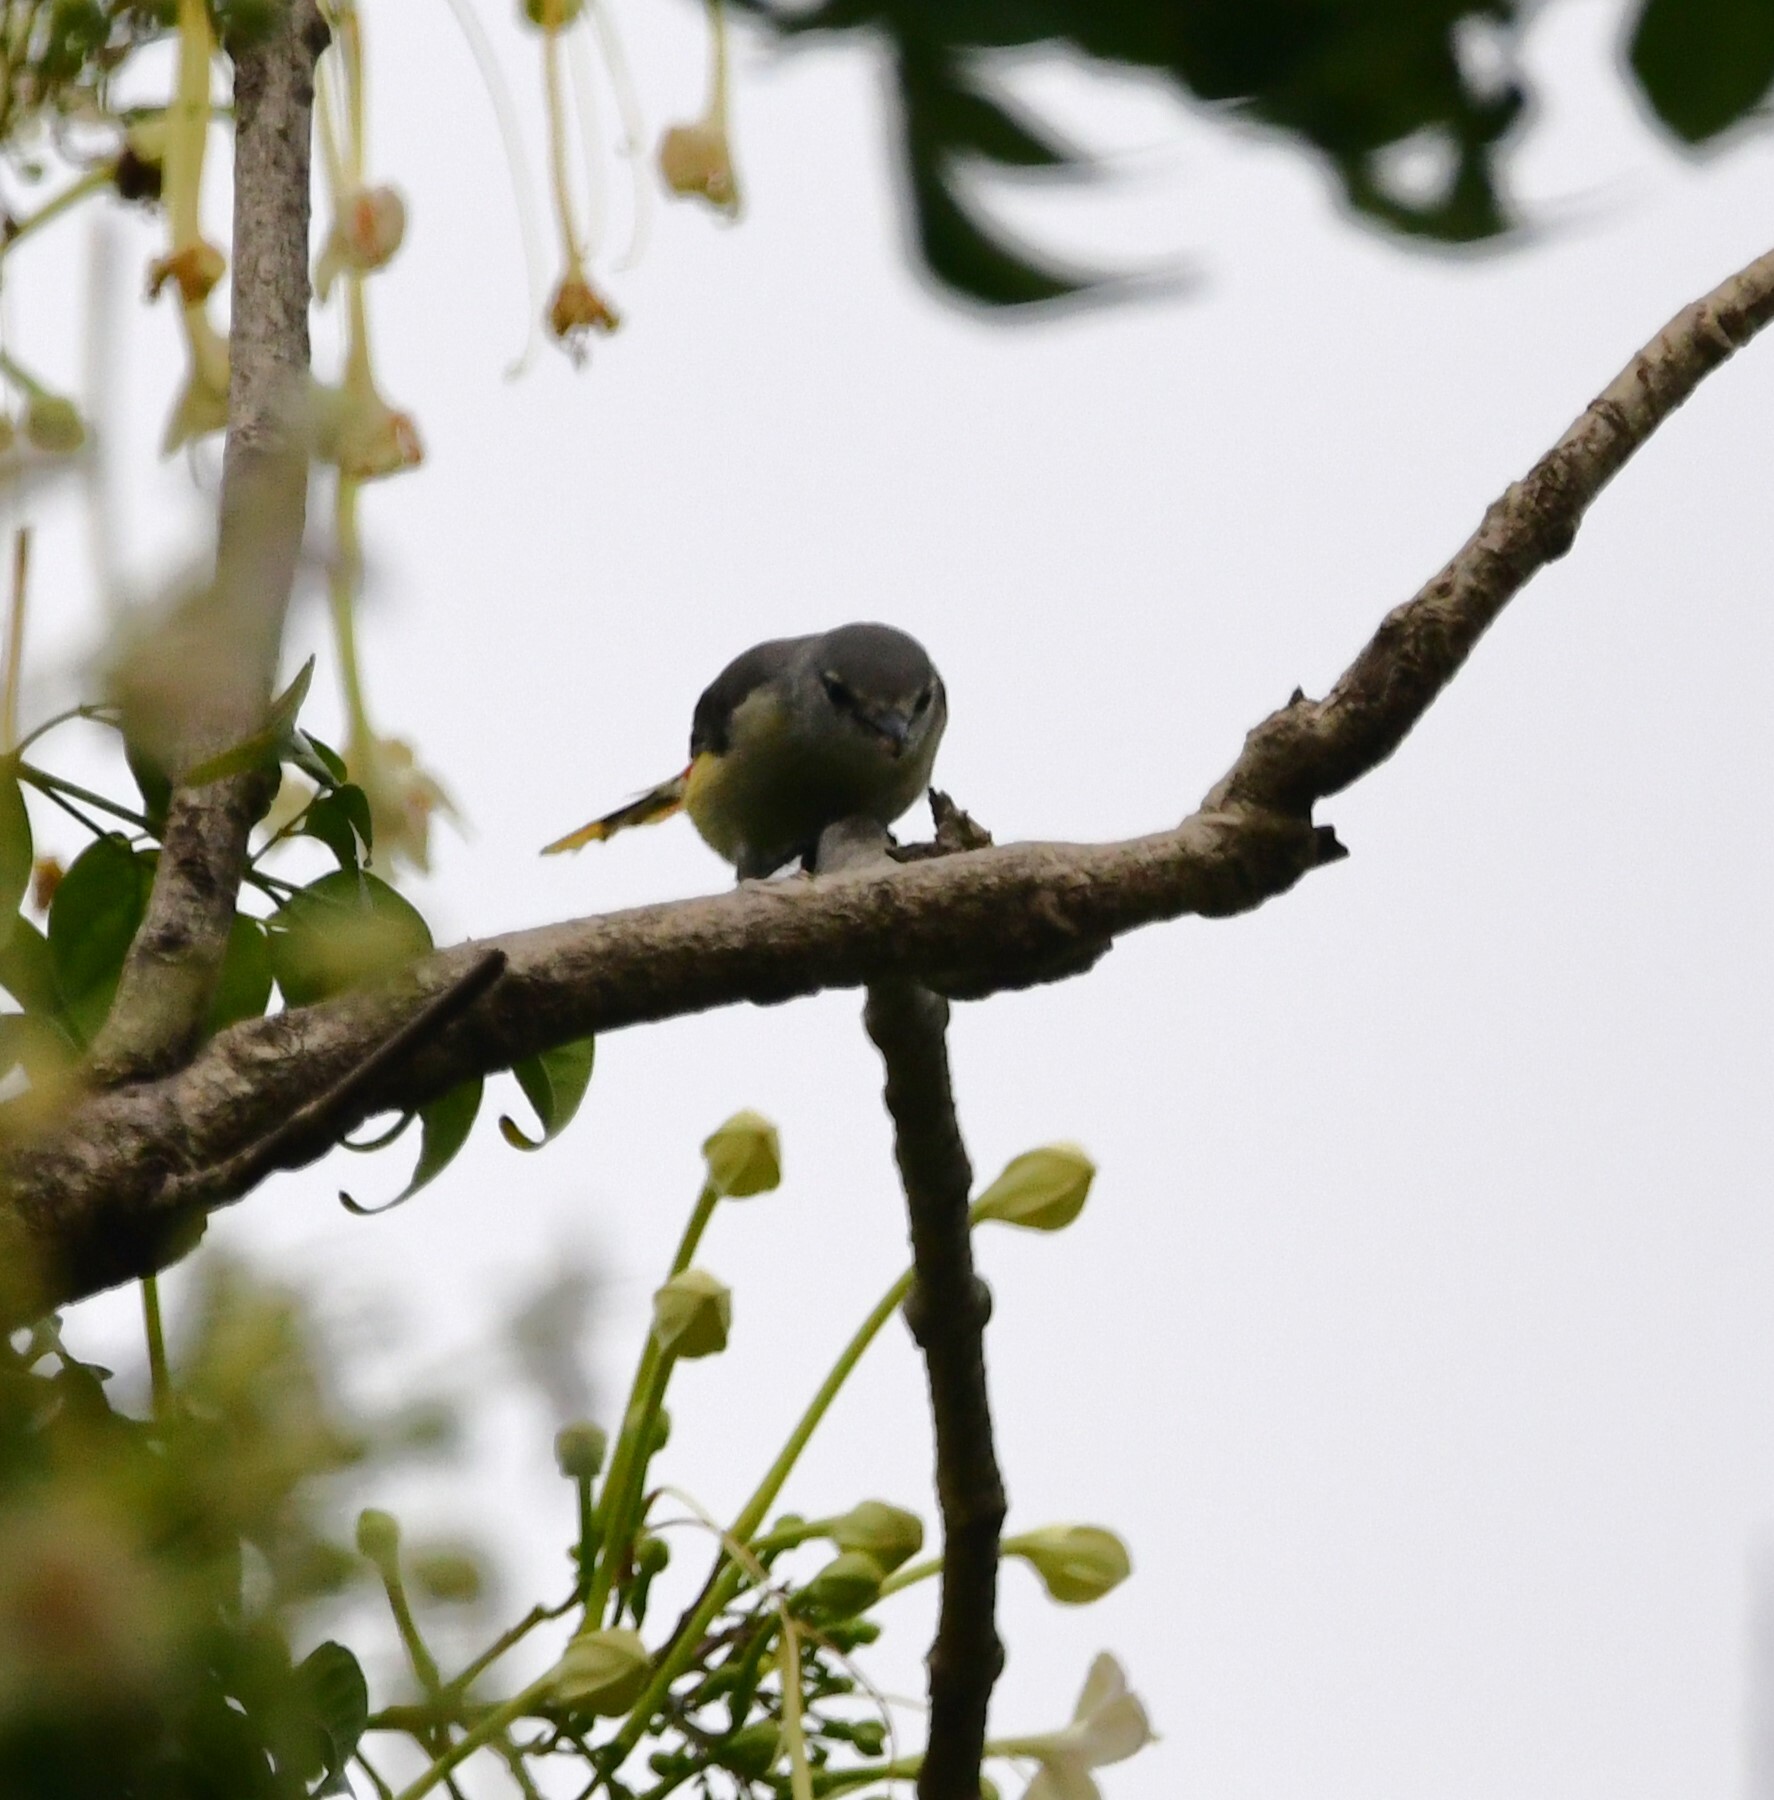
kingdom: Animalia
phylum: Chordata
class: Aves
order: Passeriformes
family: Campephagidae
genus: Pericrocotus
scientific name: Pericrocotus cinnamomeus
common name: Small minivet
